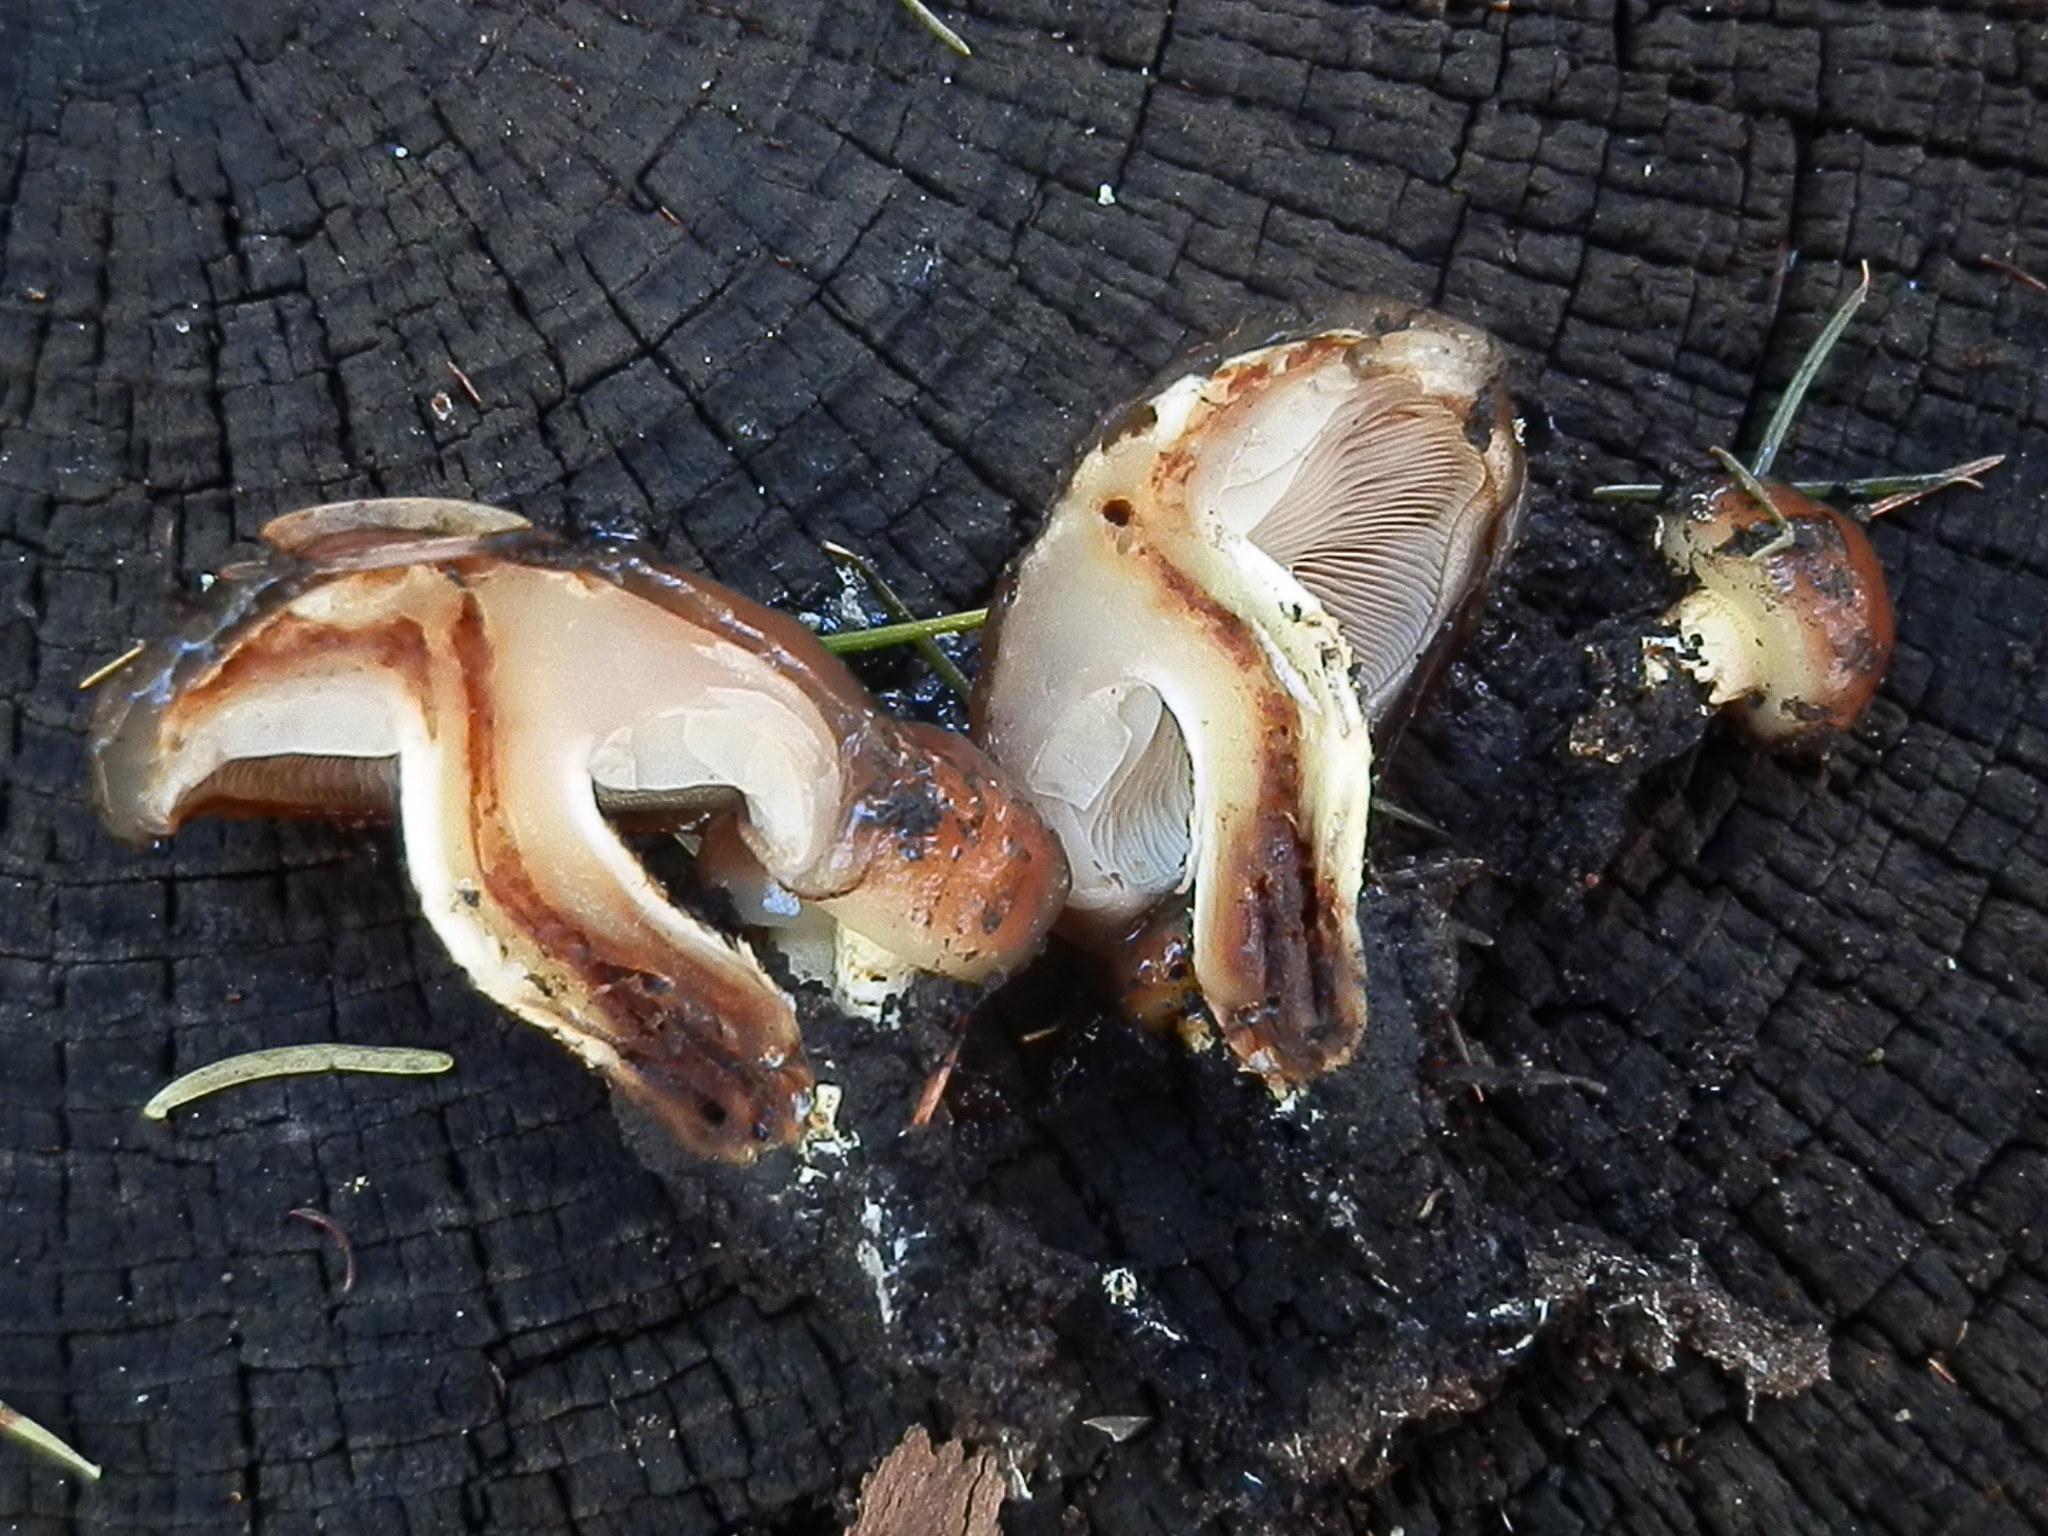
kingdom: Fungi
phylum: Basidiomycota
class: Agaricomycetes
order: Agaricales
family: Strophariaceae
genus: Pholiota
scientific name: Pholiota brunnescens
